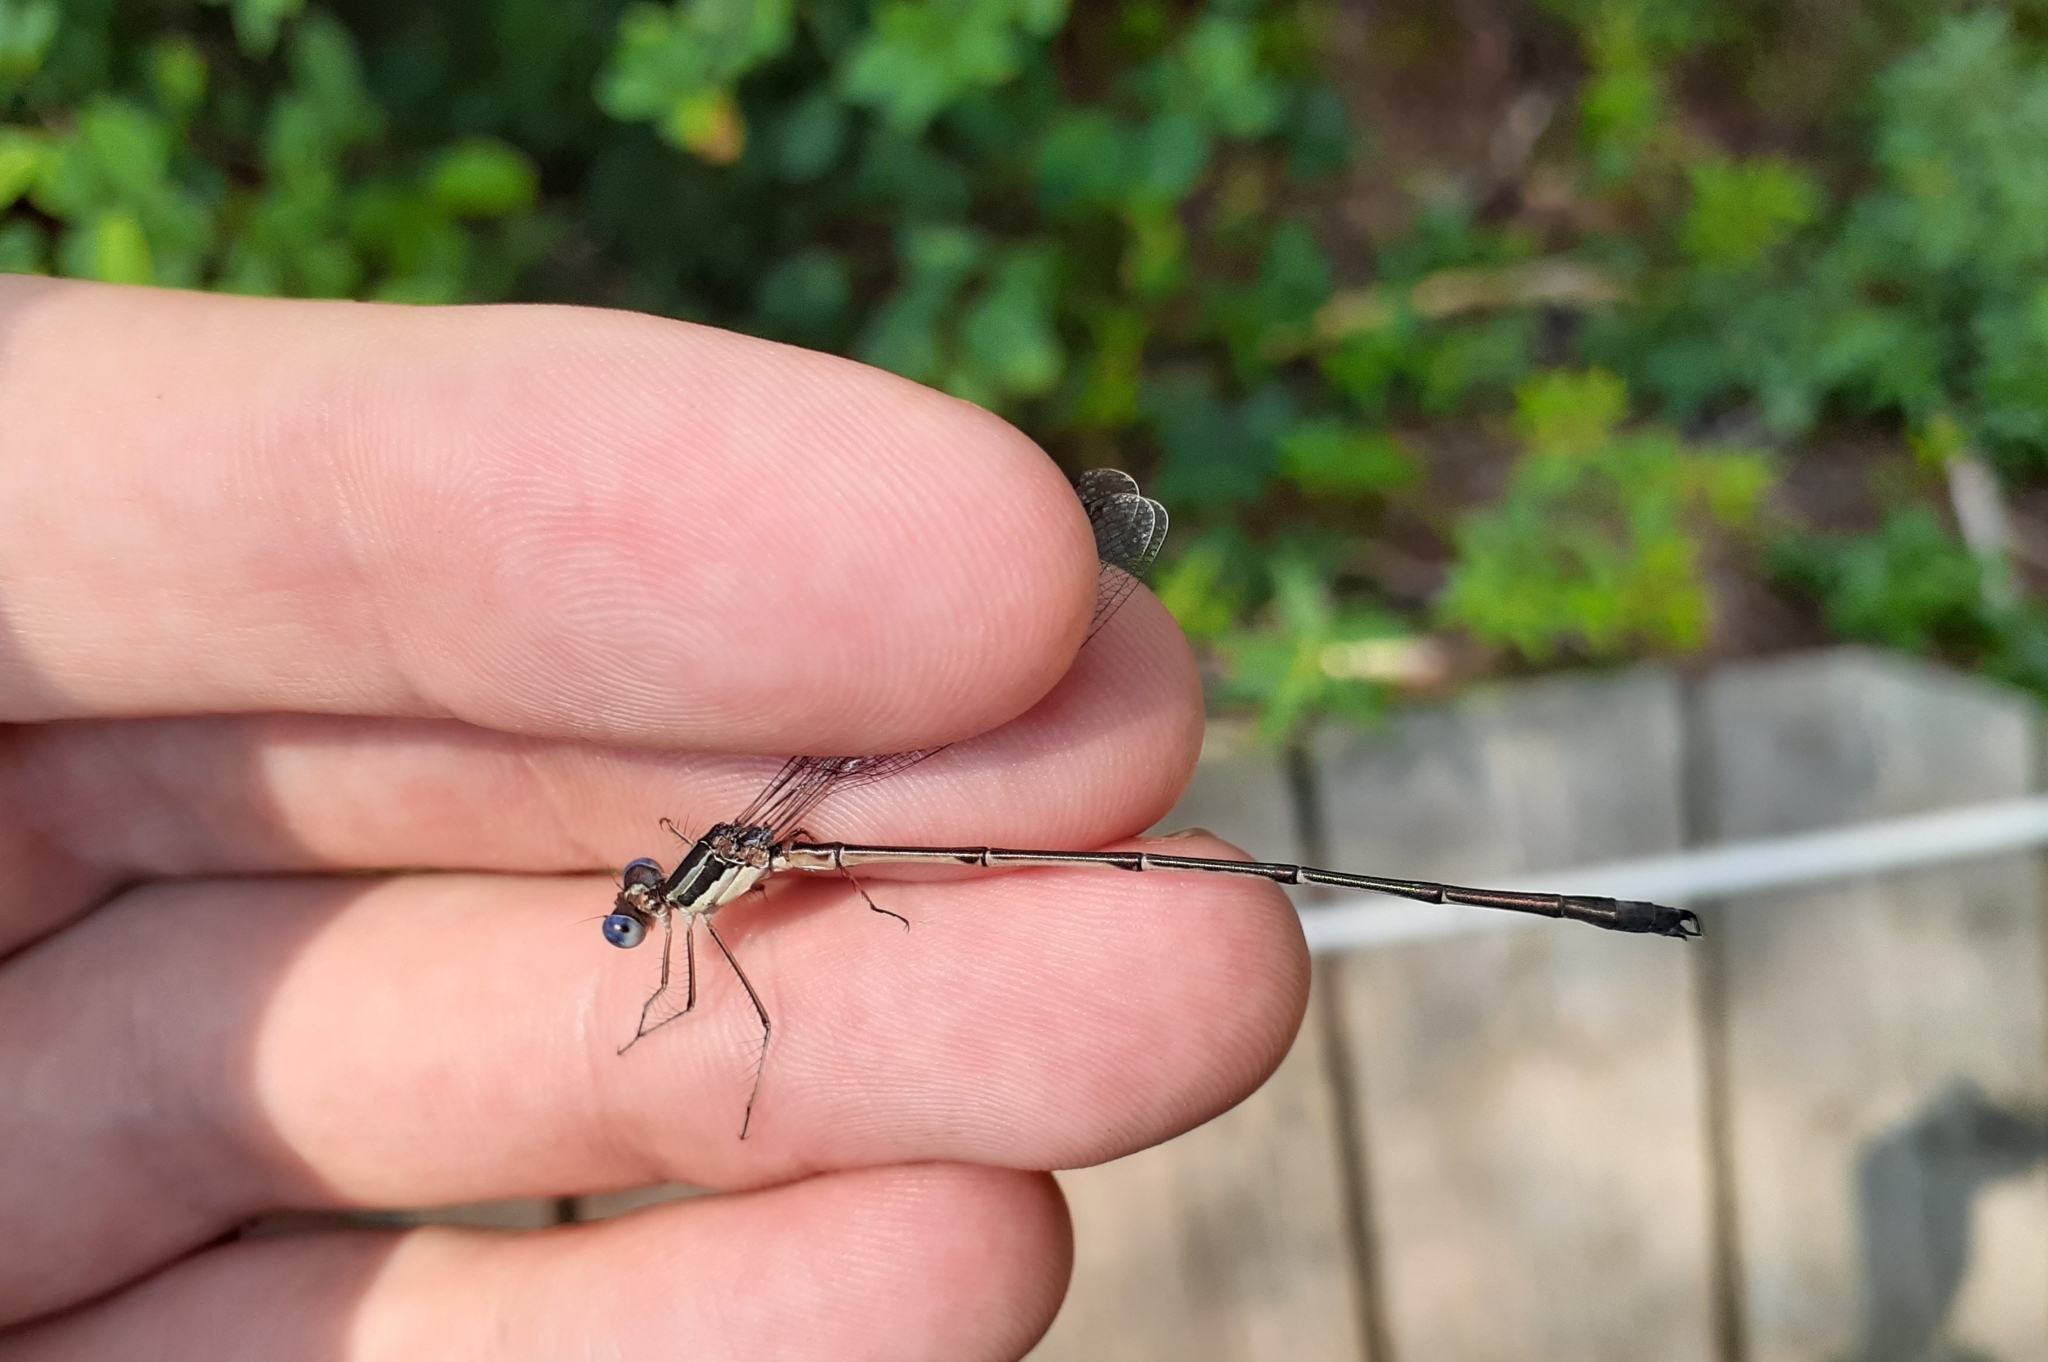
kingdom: Animalia
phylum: Arthropoda
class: Insecta
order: Odonata
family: Lestidae
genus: Lestes
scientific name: Lestes rectangularis
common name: Slender spreadwing
